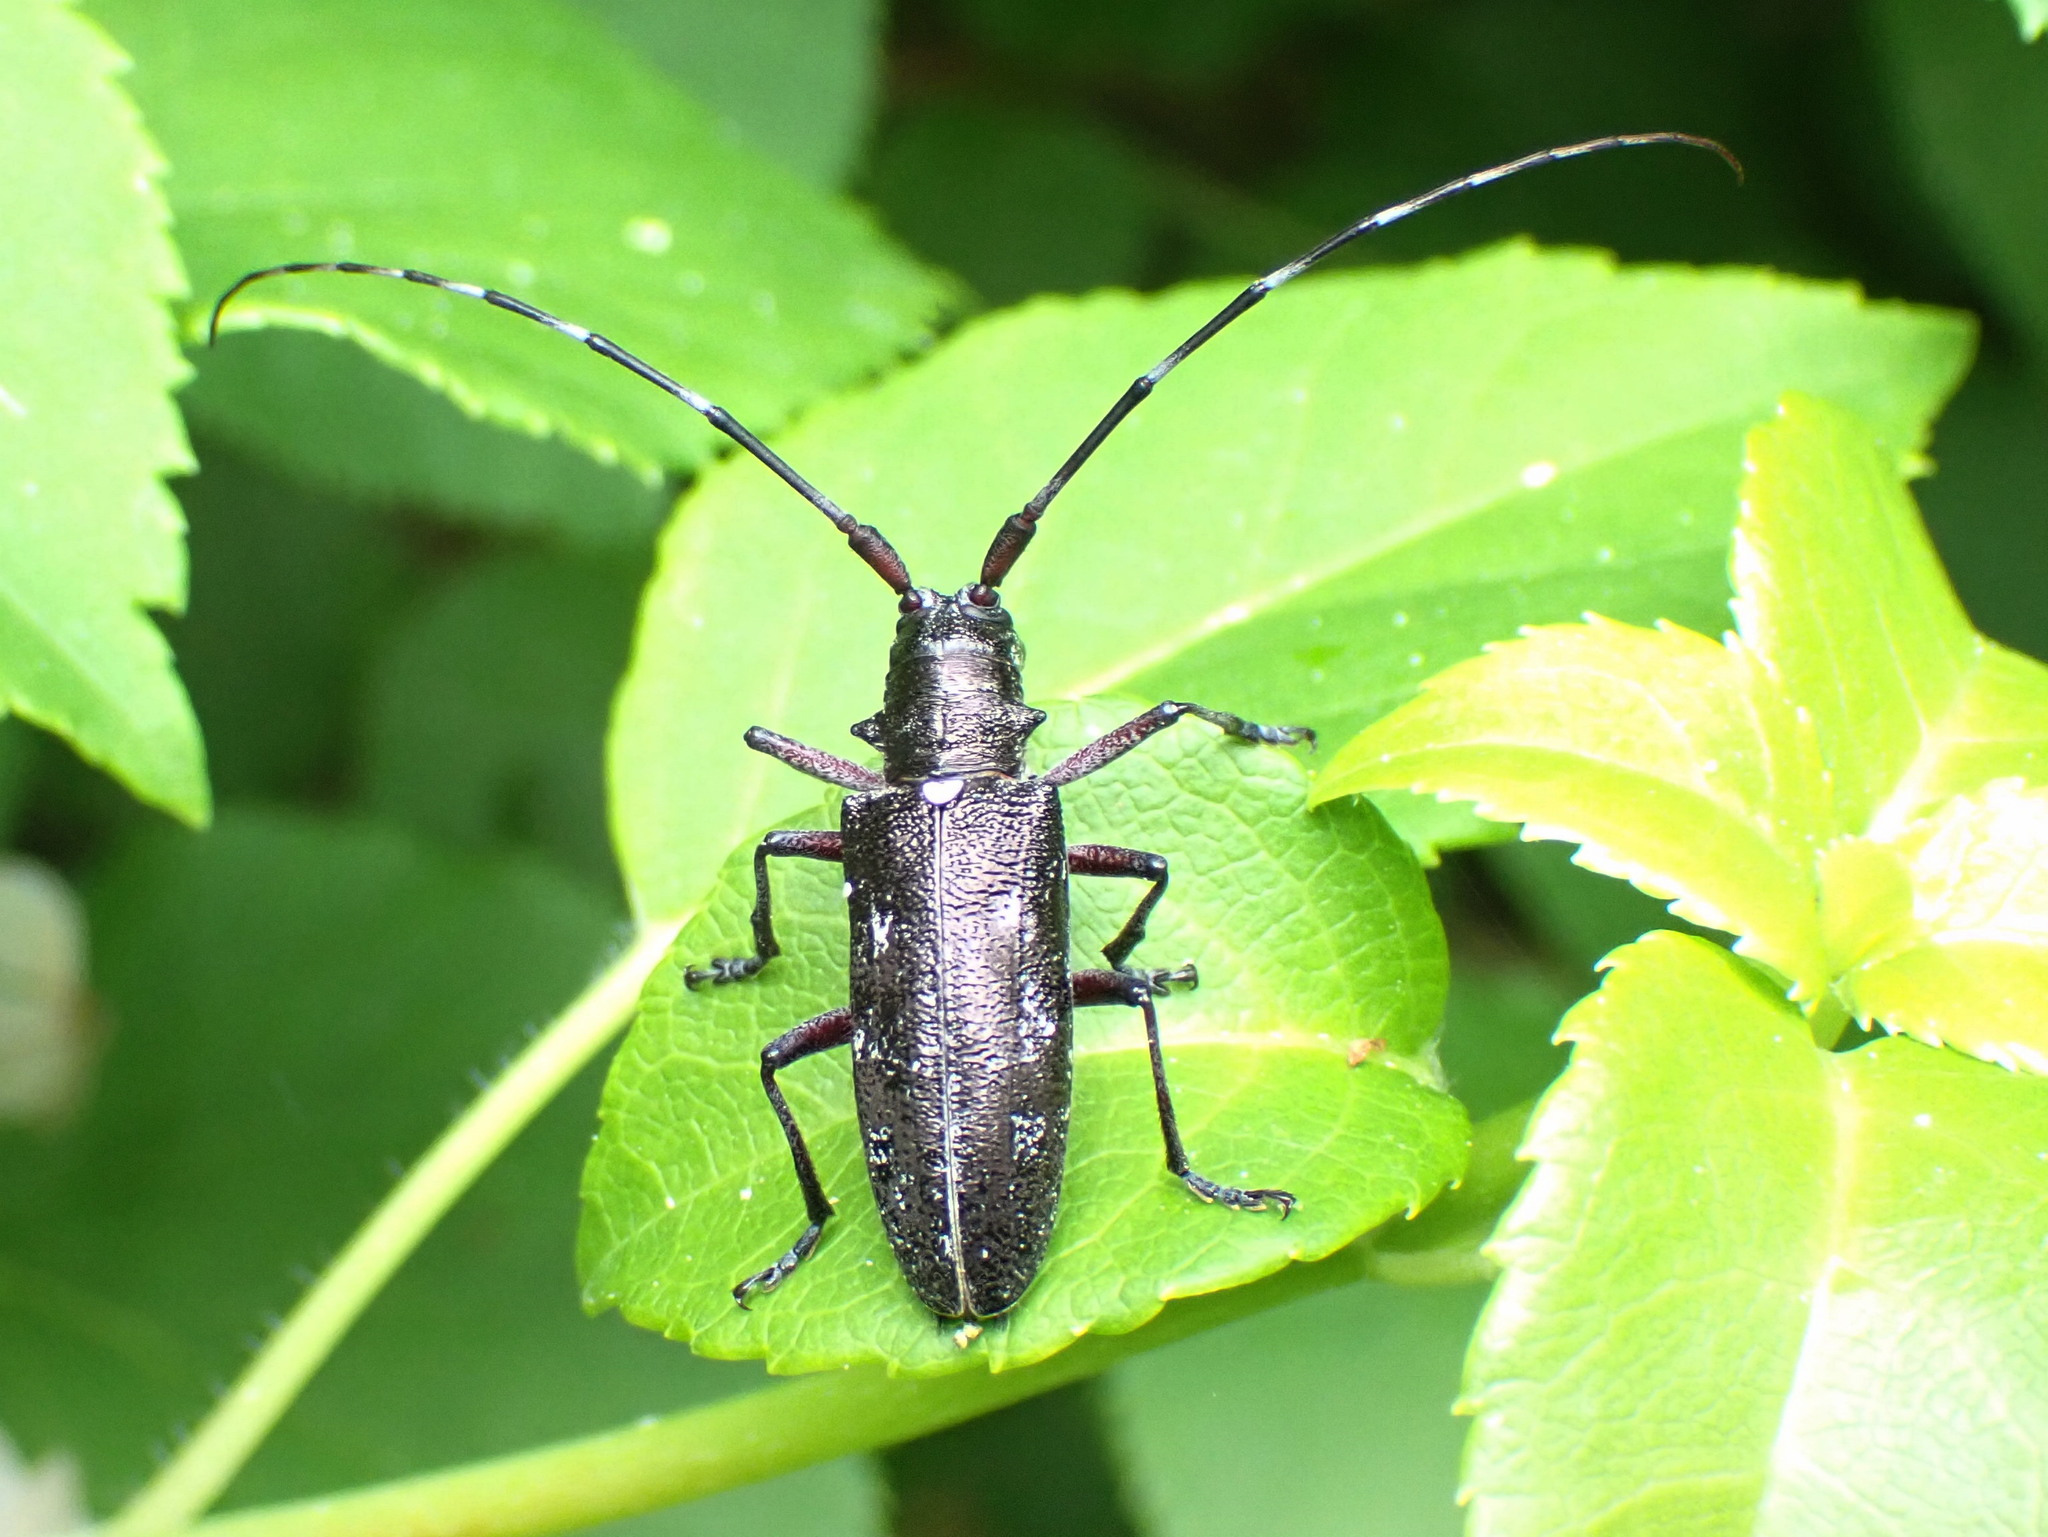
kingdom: Animalia
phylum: Arthropoda
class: Insecta
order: Coleoptera
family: Cerambycidae
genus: Monochamus
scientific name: Monochamus scutellatus
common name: White-spotted sawyer beetle
